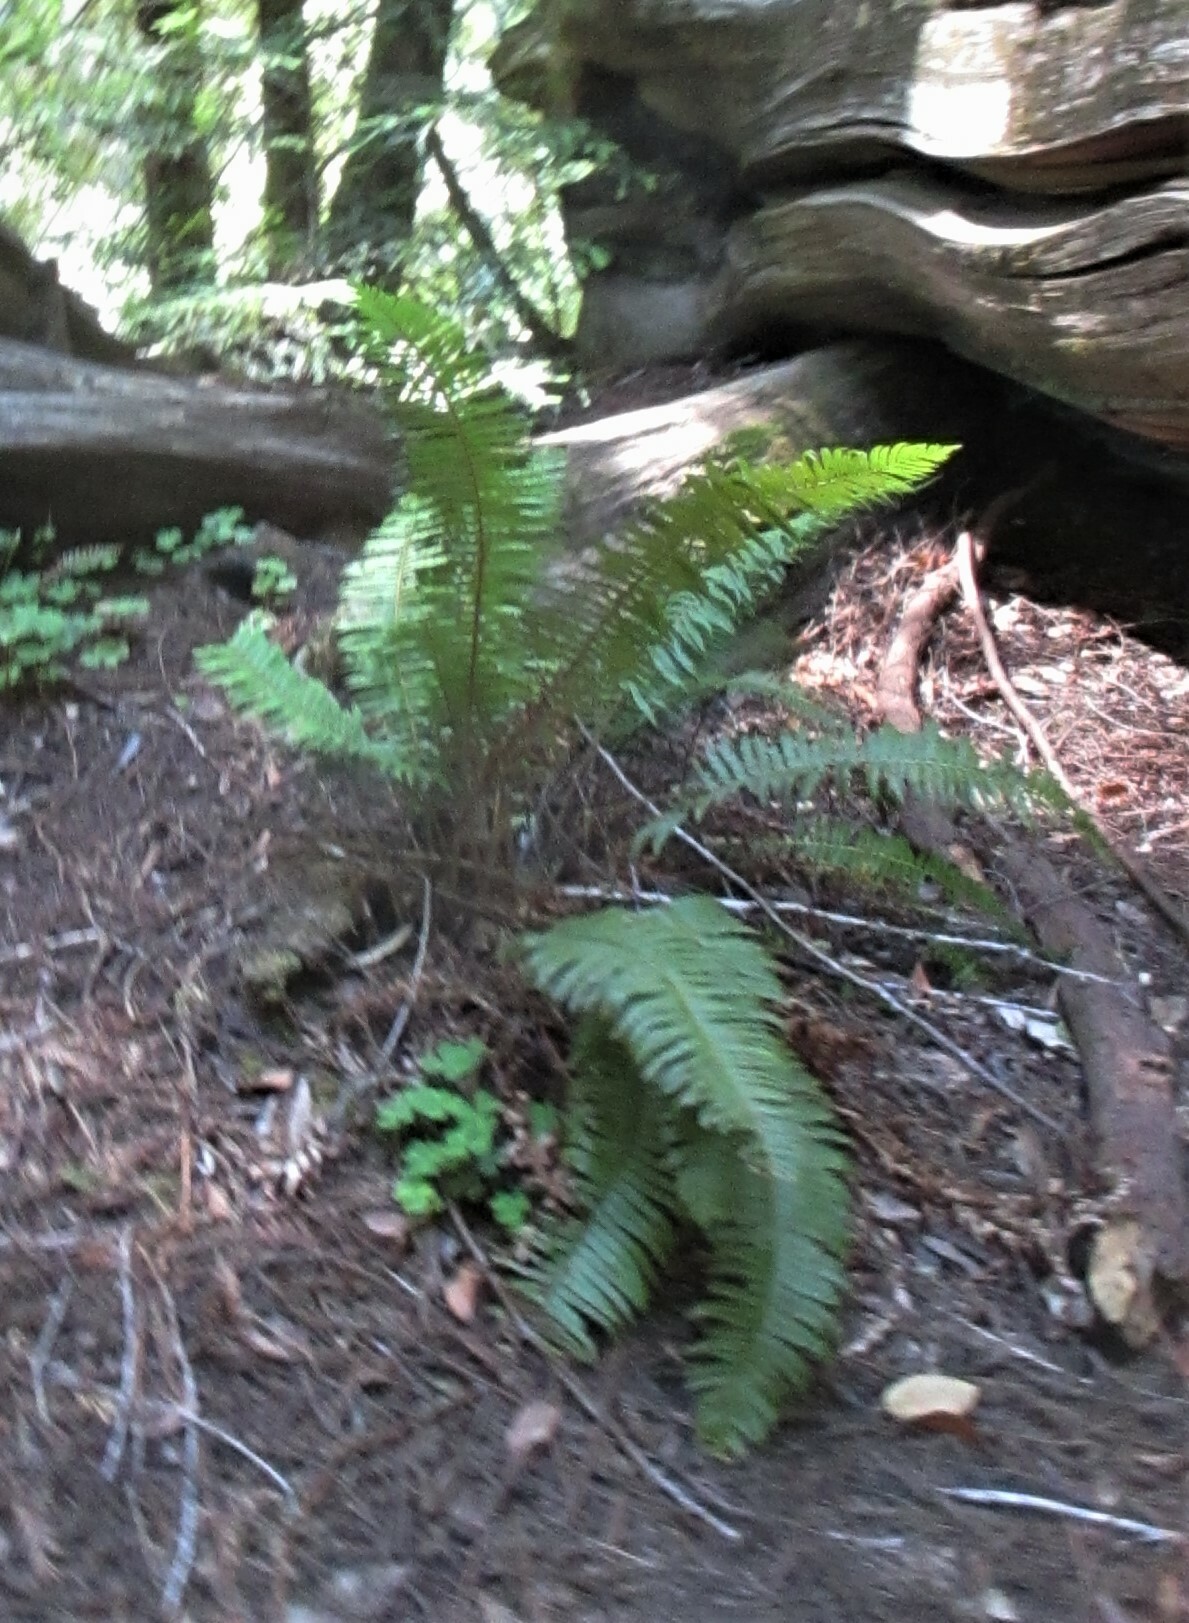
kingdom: Plantae
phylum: Tracheophyta
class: Polypodiopsida
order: Polypodiales
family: Dryopteridaceae
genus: Polystichum
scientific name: Polystichum munitum
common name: Western sword-fern
